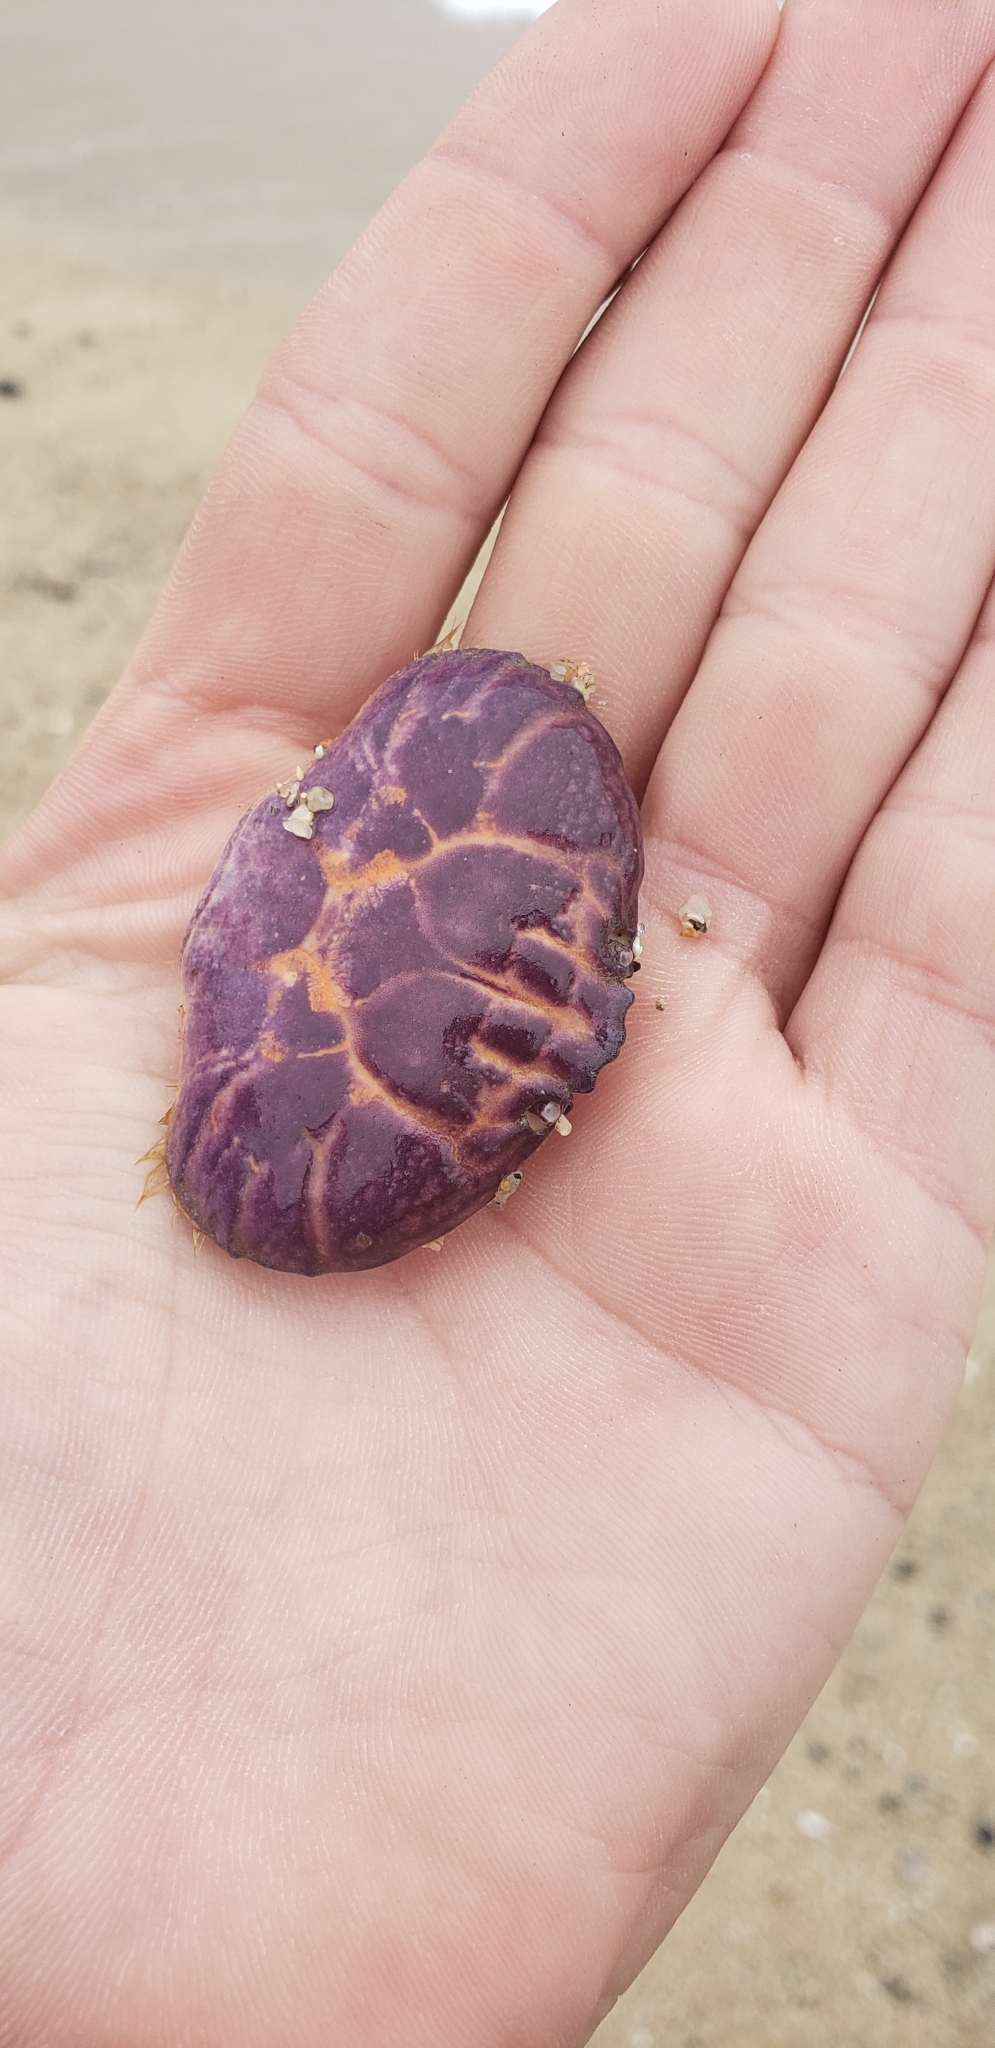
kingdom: Animalia
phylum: Arthropoda
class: Malacostraca
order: Decapoda
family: Xanthidae
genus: Paraxanthus
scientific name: Paraxanthus barbiger
